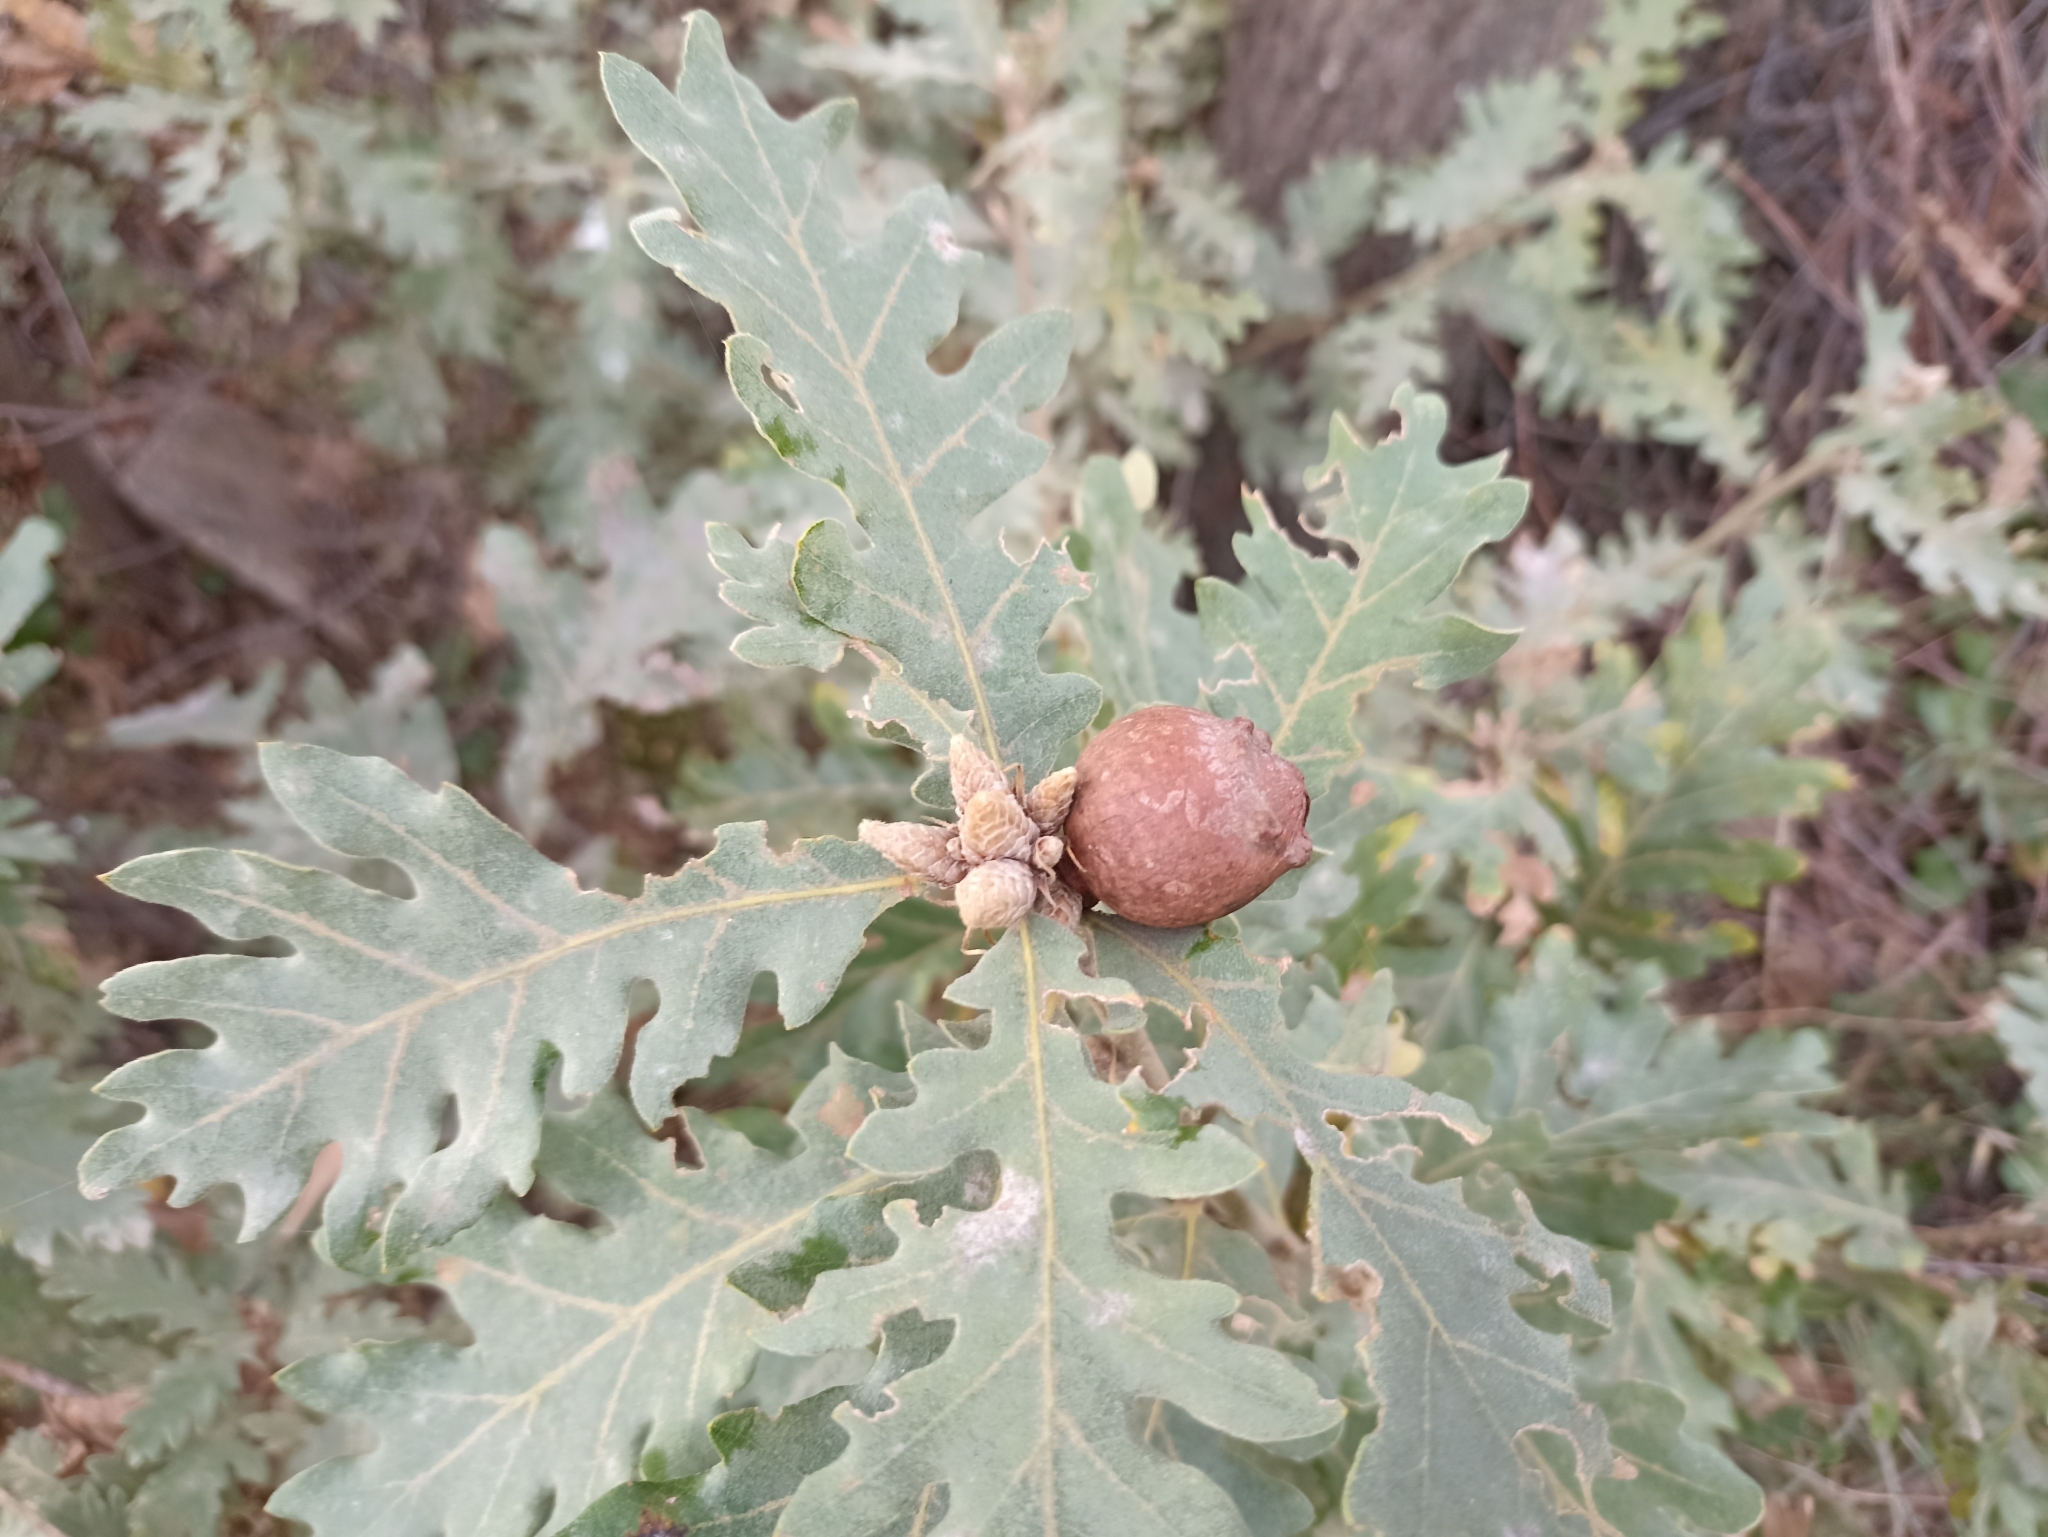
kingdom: Animalia
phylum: Arthropoda
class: Insecta
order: Hymenoptera
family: Cynipidae
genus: Andricus
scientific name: Andricus quercustozae
